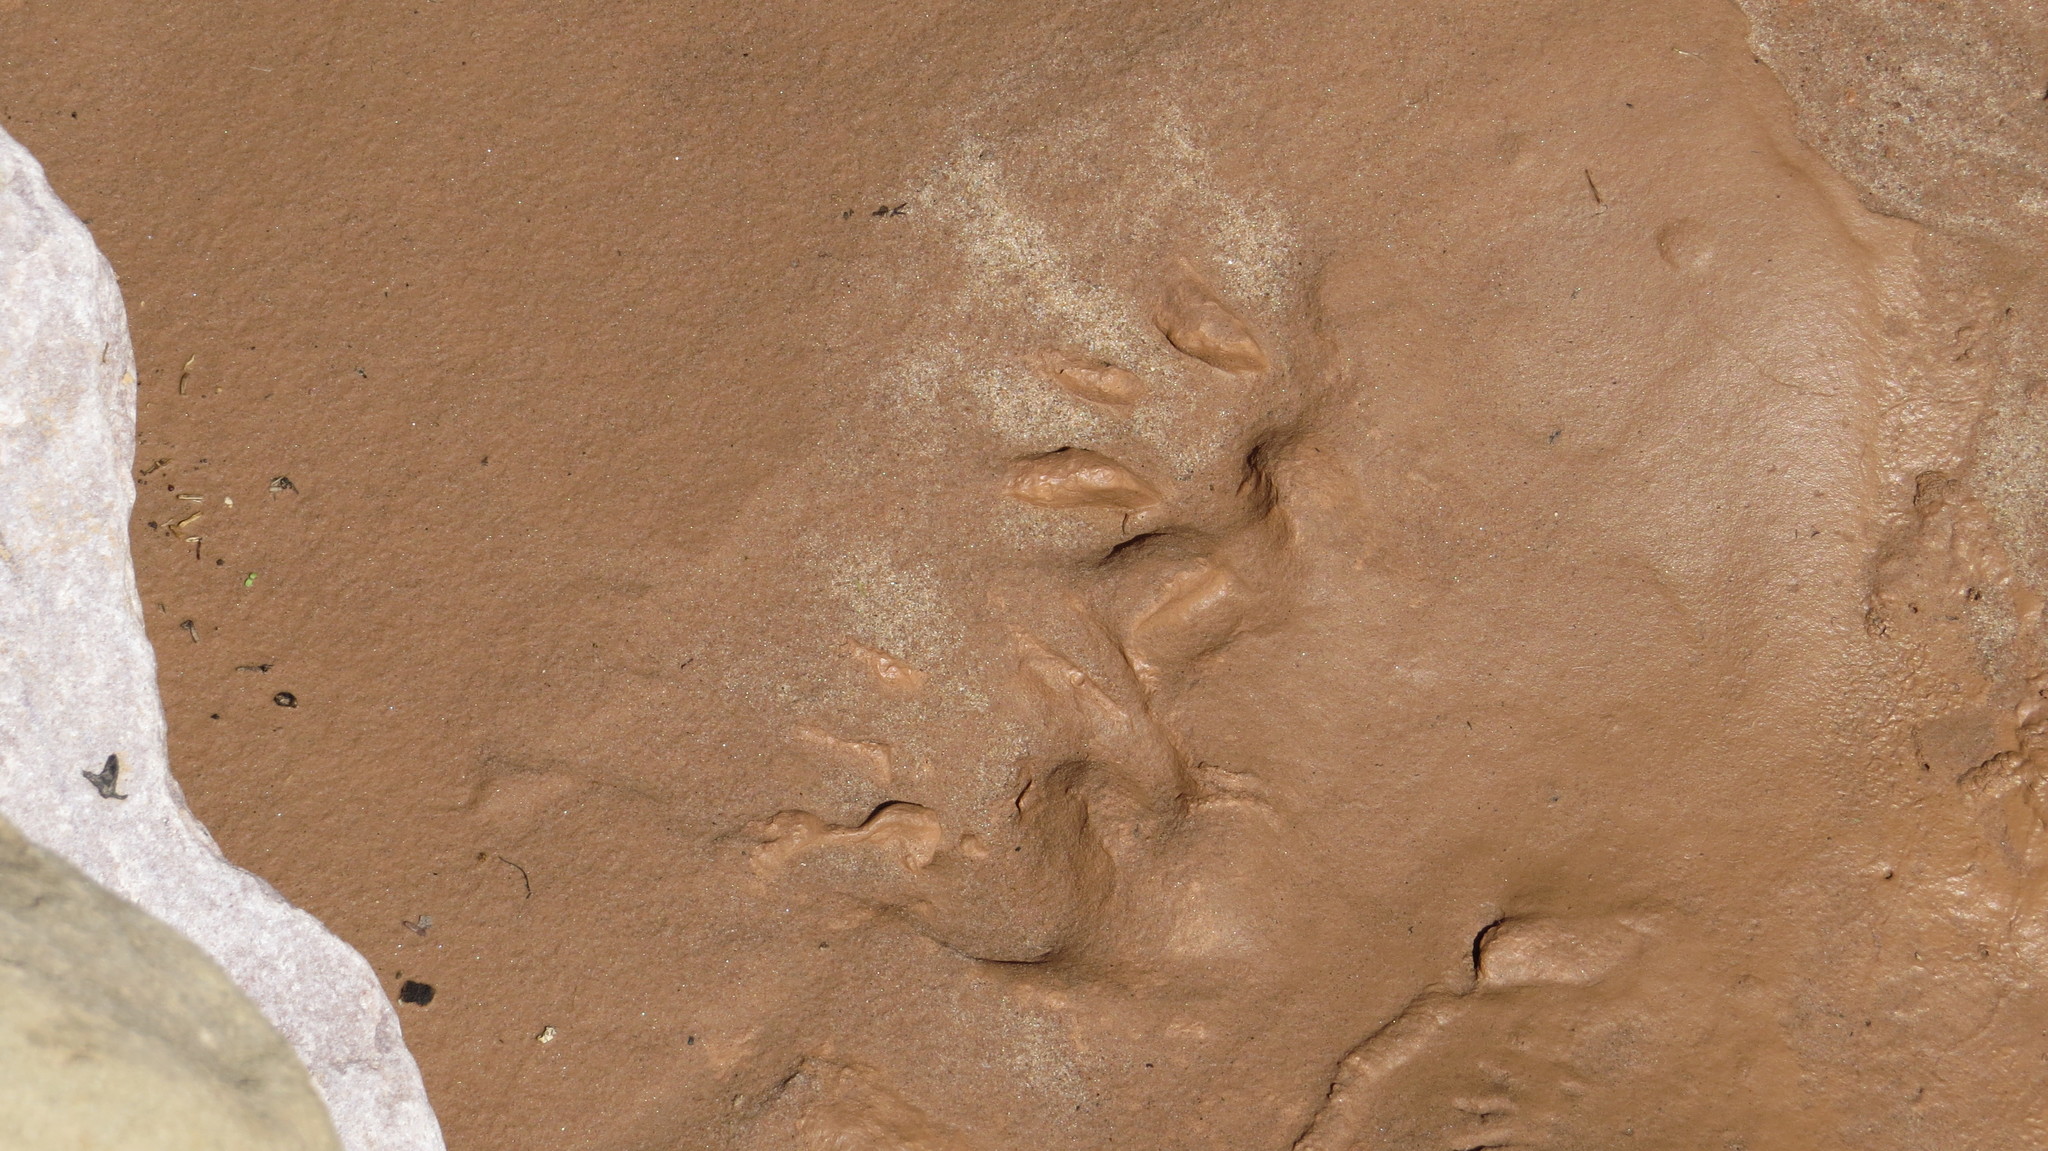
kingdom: Animalia
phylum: Chordata
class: Mammalia
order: Carnivora
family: Procyonidae
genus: Procyon
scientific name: Procyon cancrivorus
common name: Crab-eating raccoon
